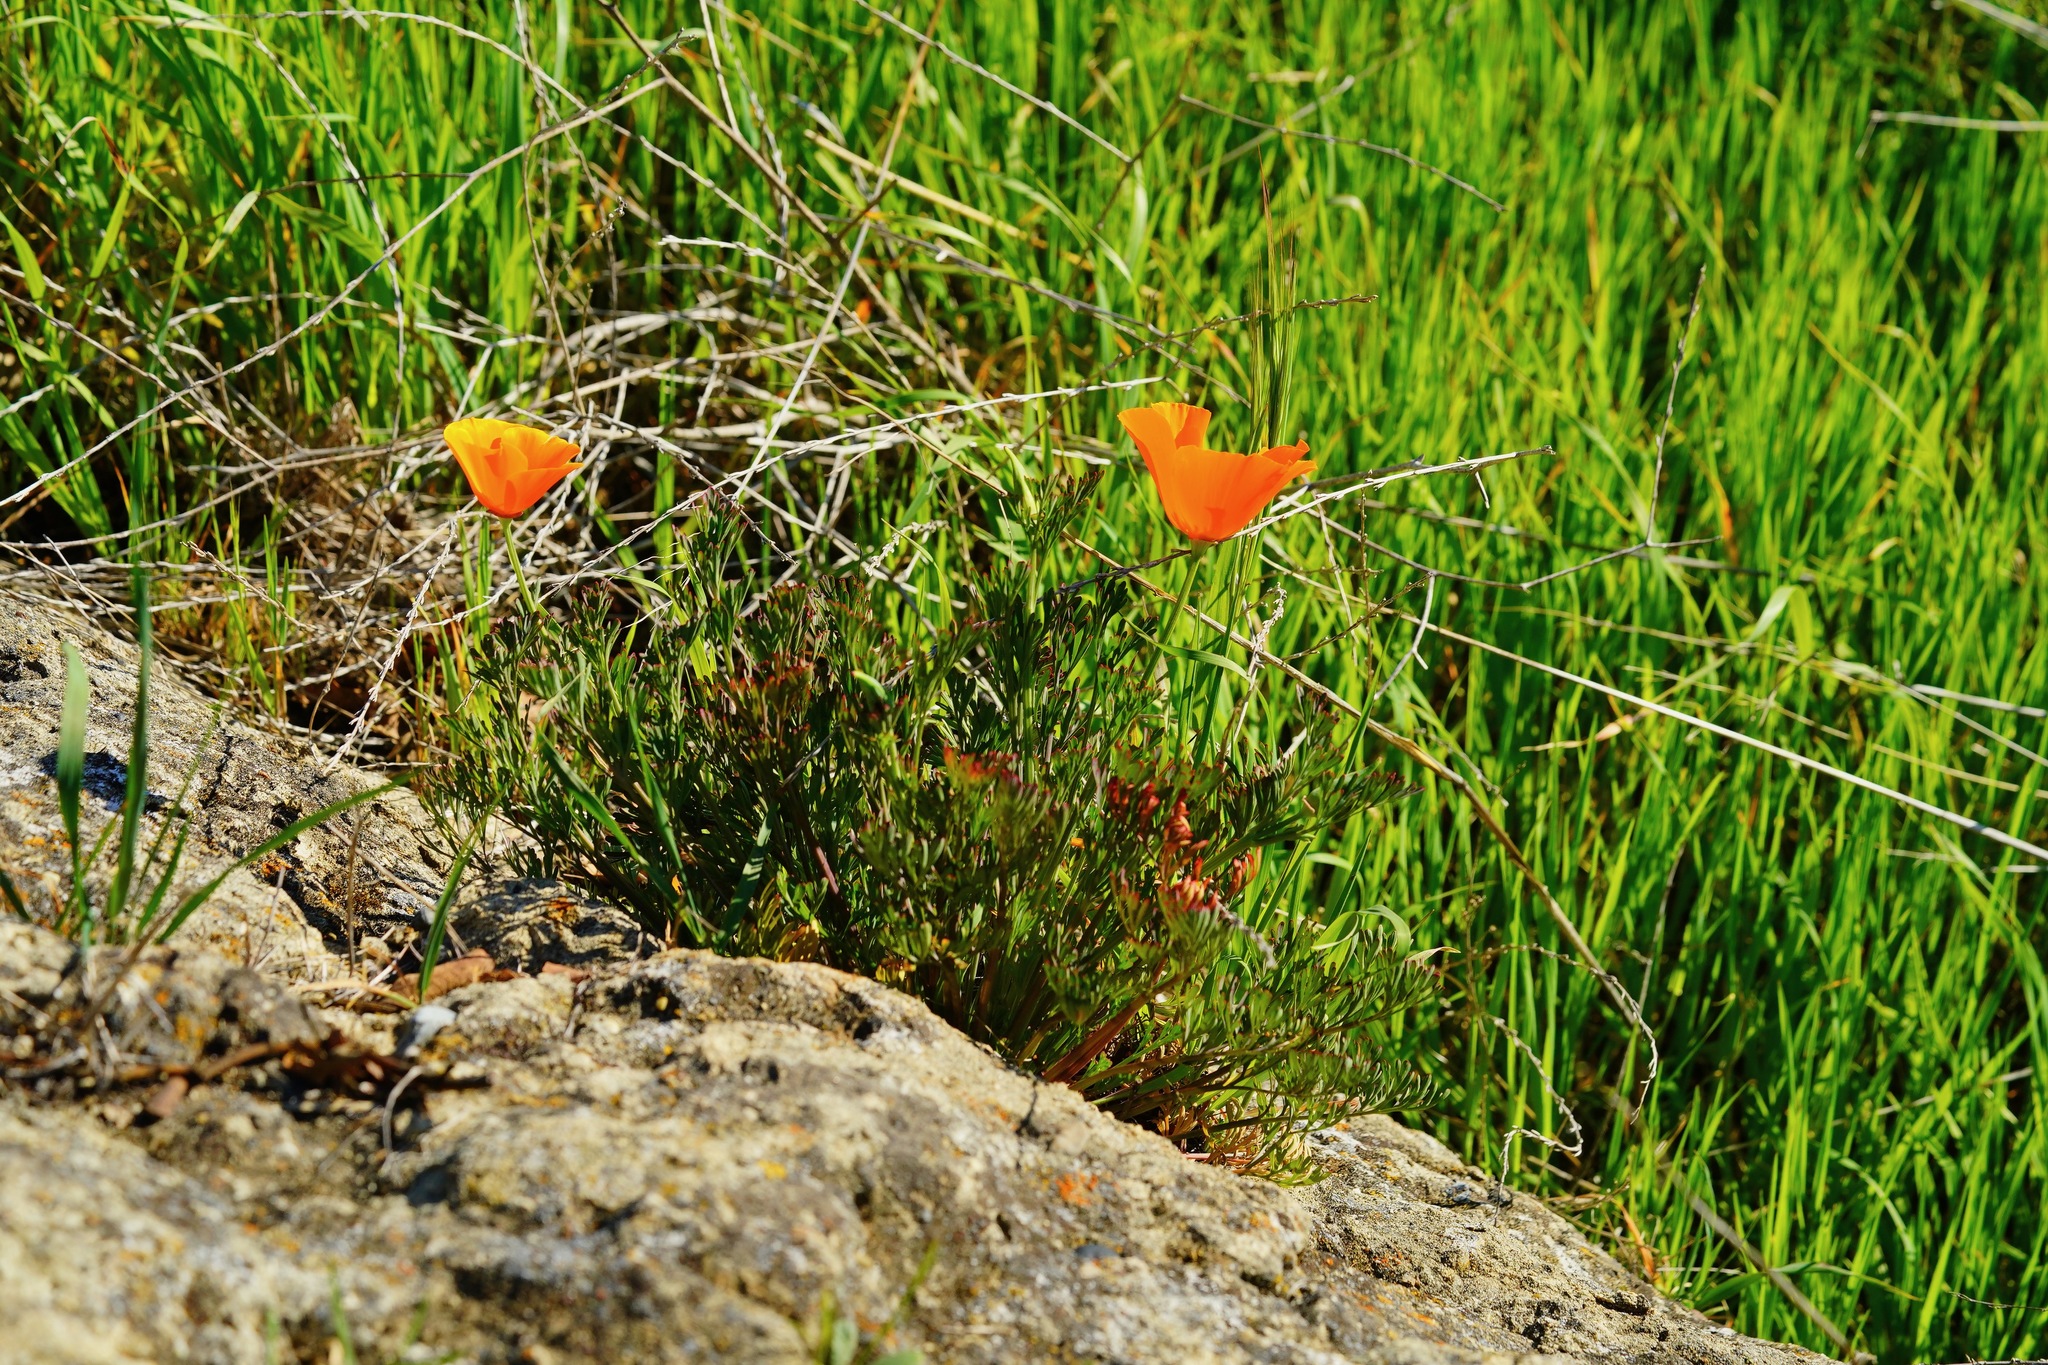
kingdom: Plantae
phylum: Tracheophyta
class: Magnoliopsida
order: Ranunculales
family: Papaveraceae
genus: Eschscholzia
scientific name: Eschscholzia californica
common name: California poppy
